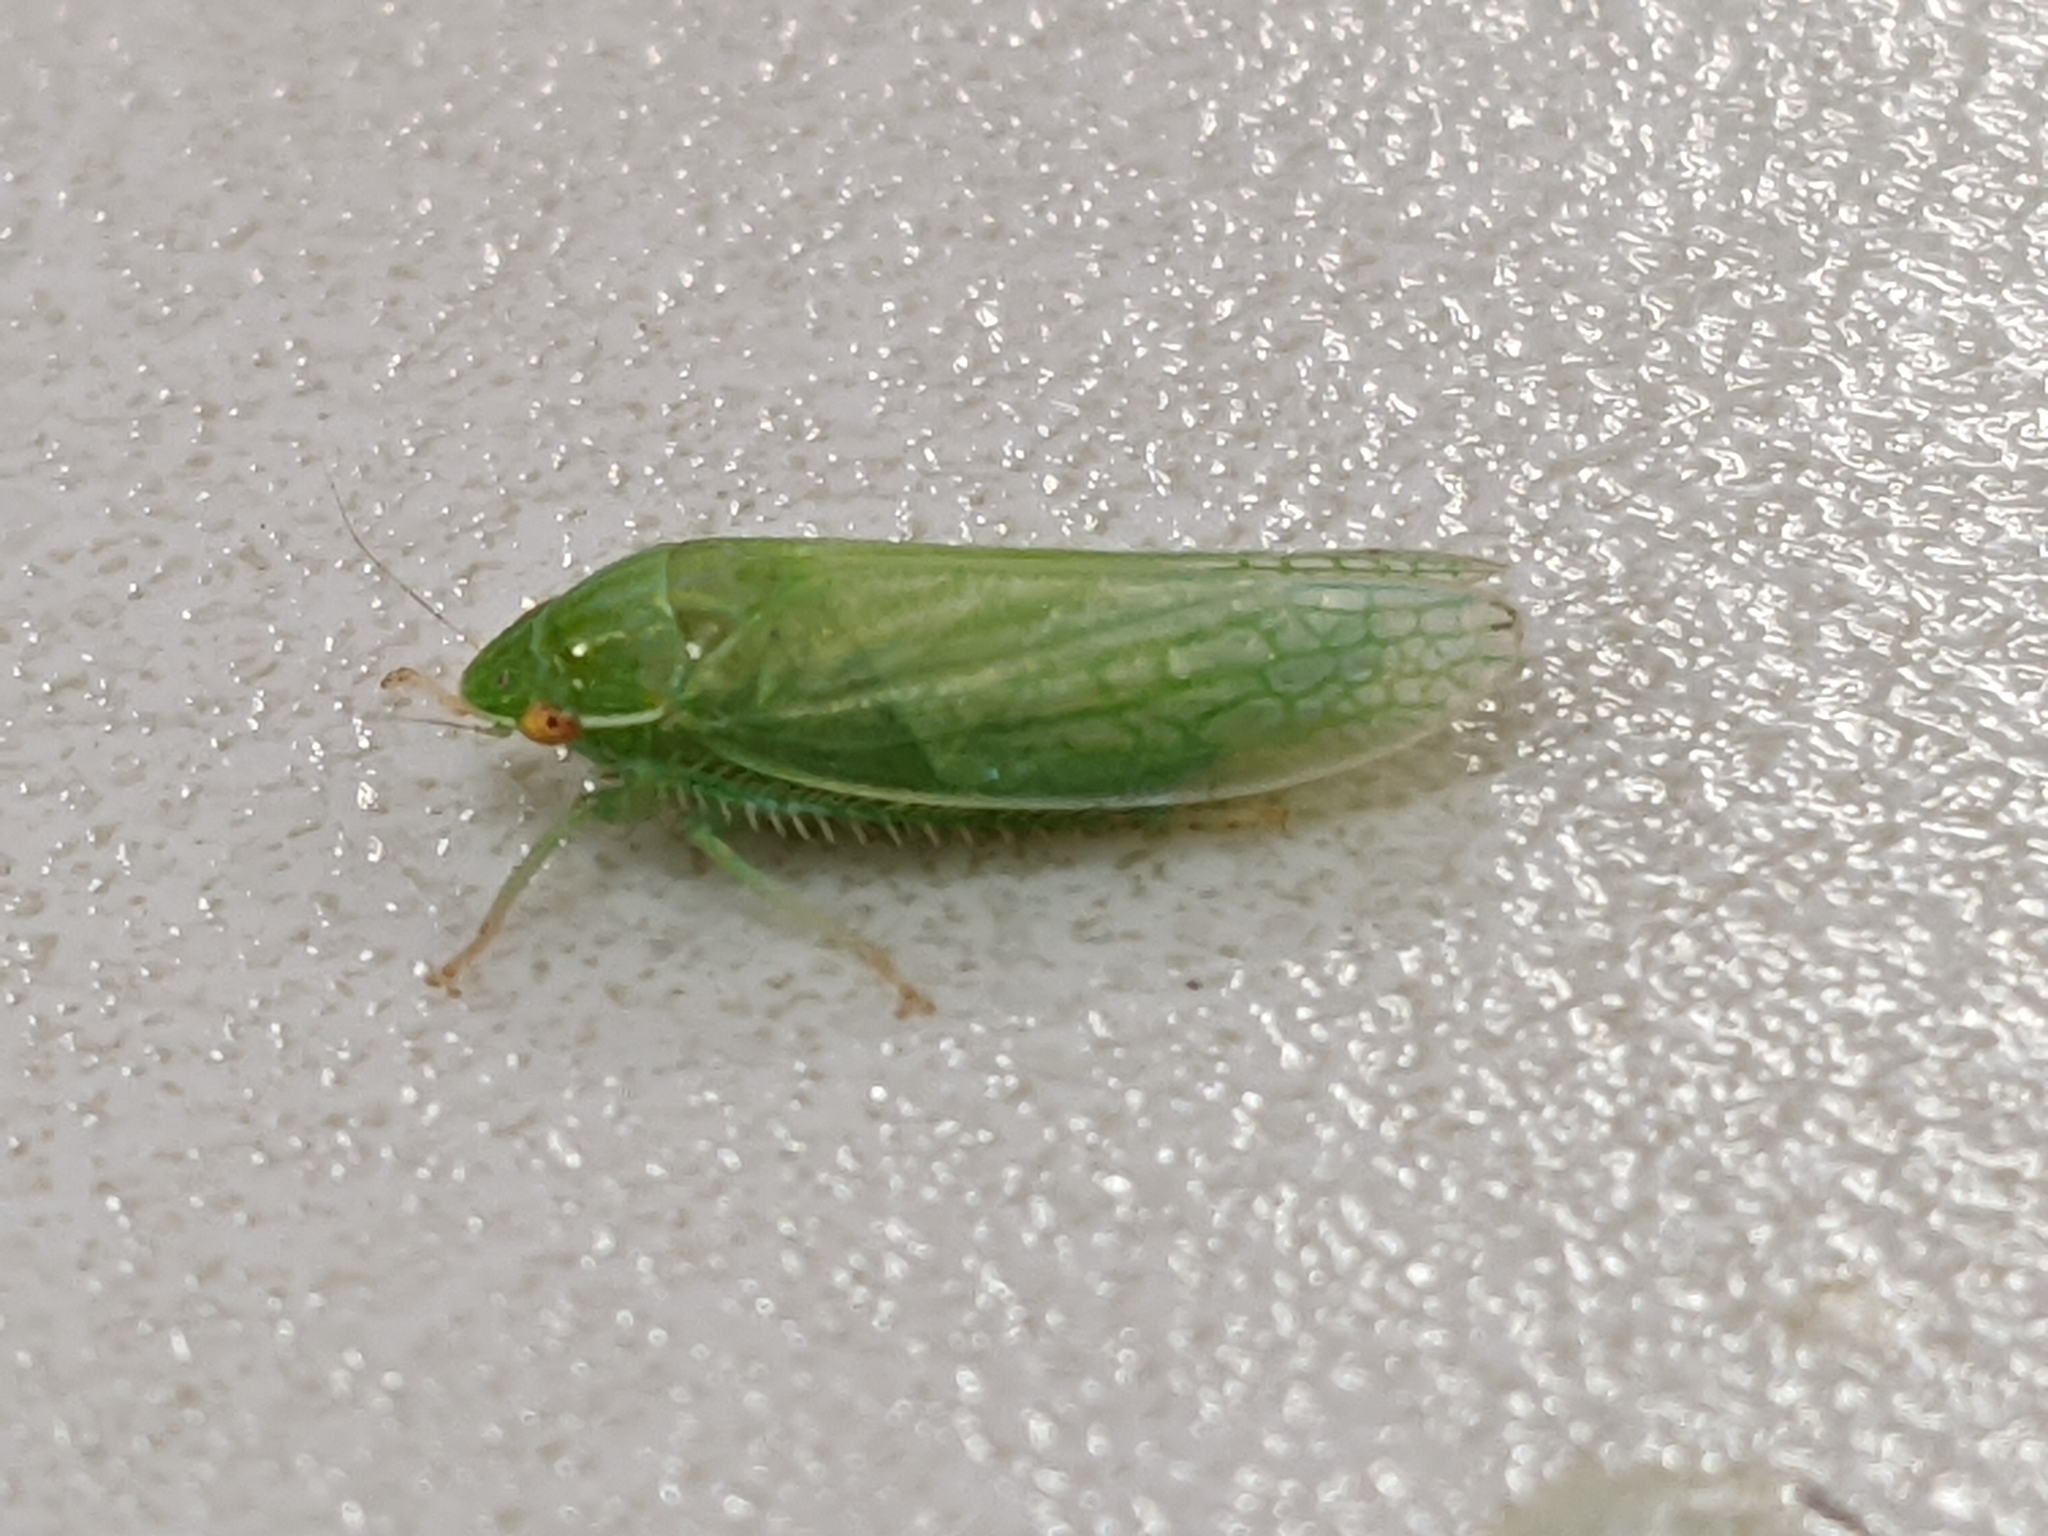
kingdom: Animalia
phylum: Arthropoda
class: Insecta
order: Hemiptera
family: Cicadellidae
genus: Gyponana
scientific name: Gyponana procera
